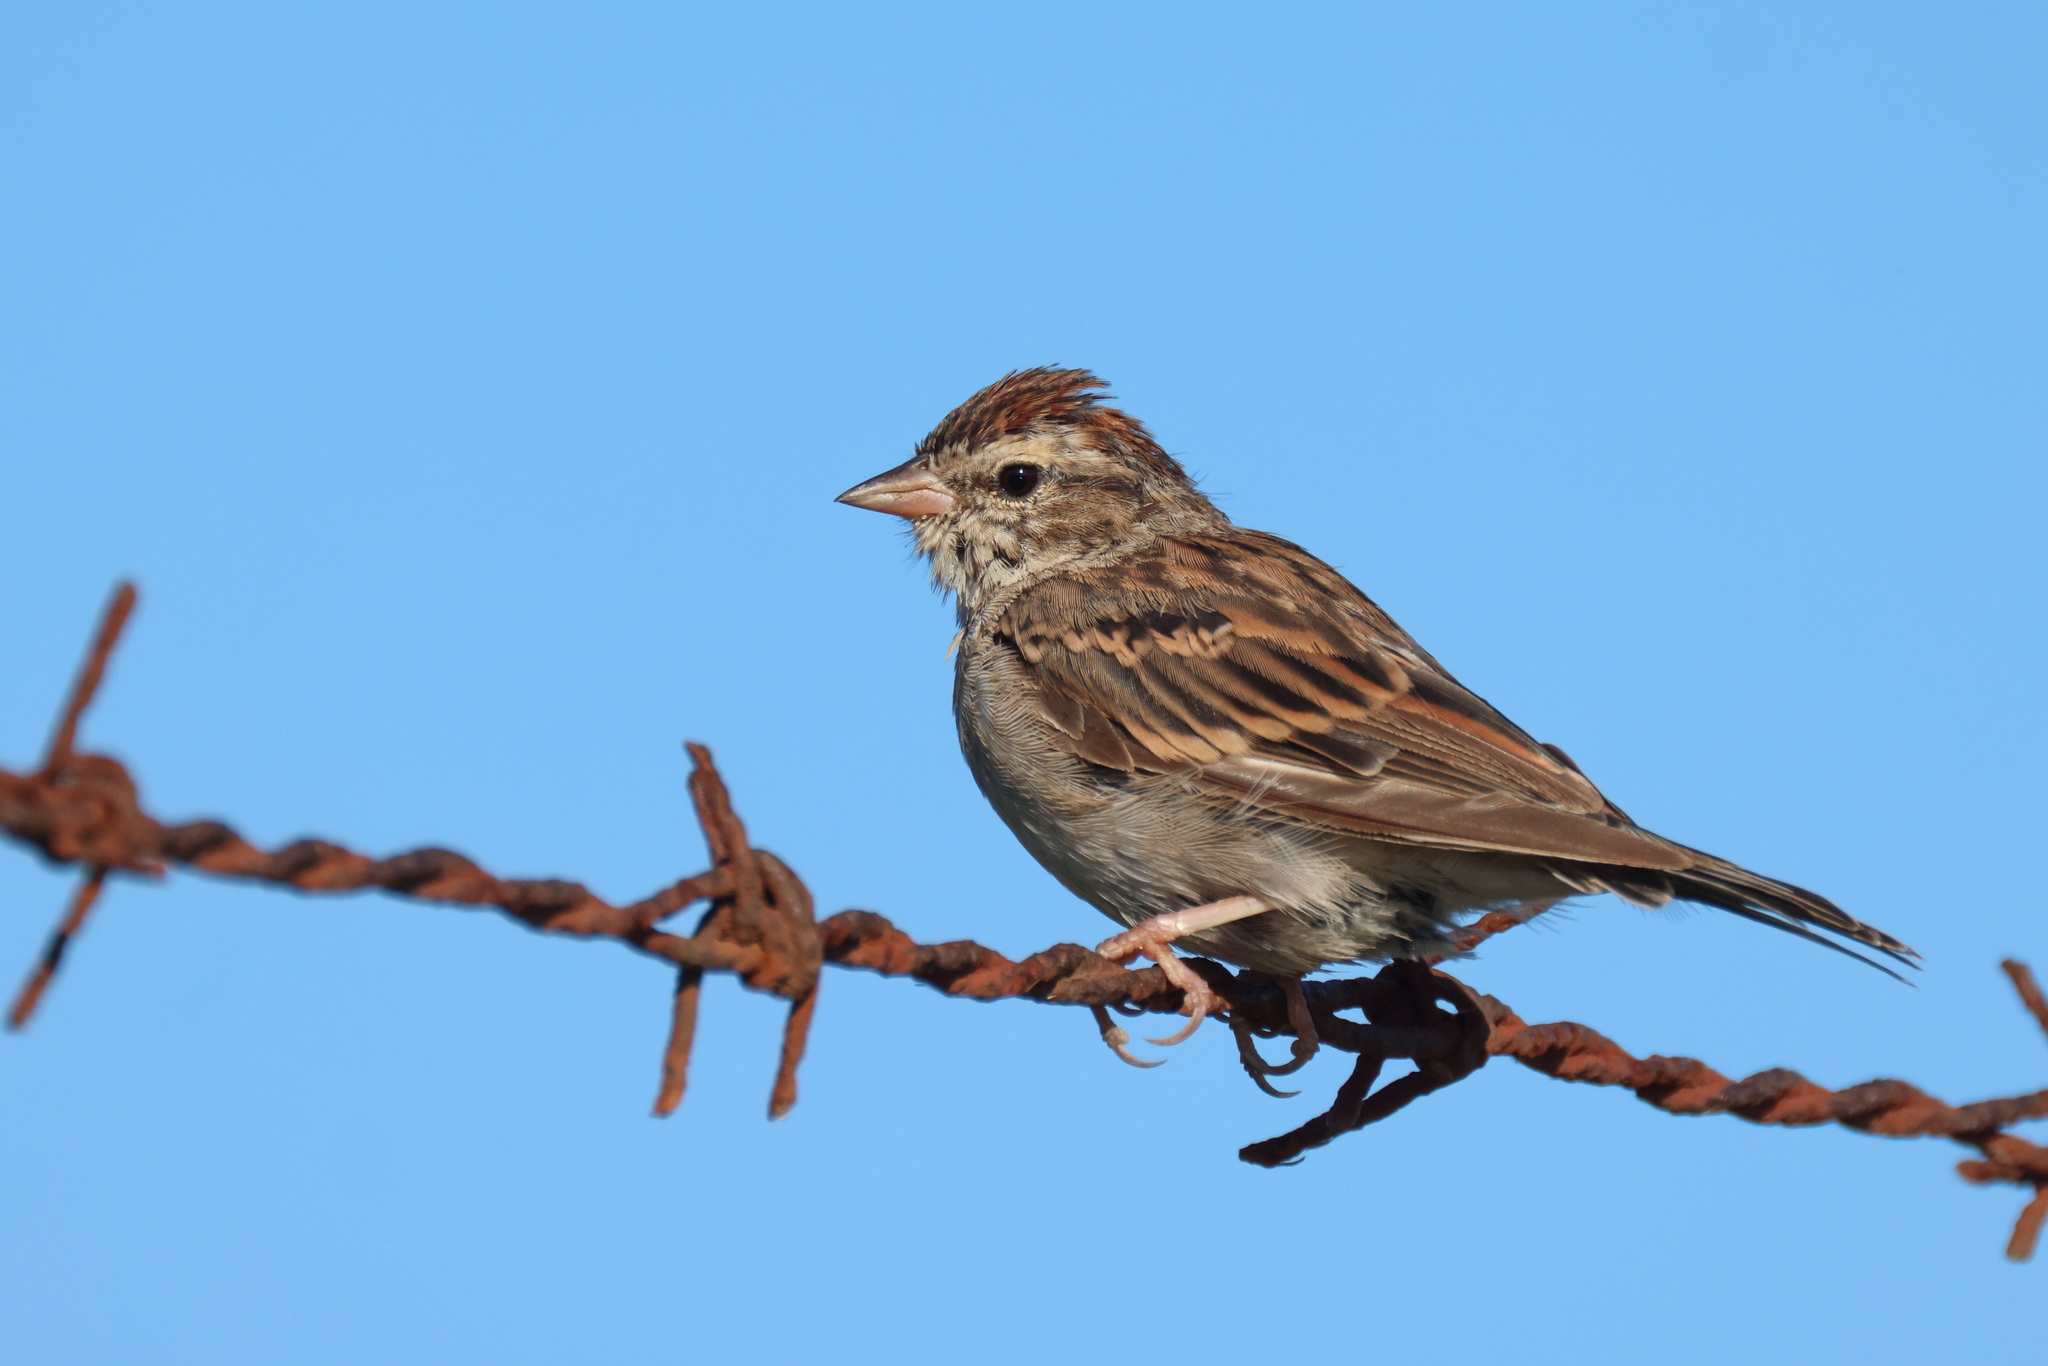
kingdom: Animalia
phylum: Chordata
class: Aves
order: Passeriformes
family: Passerellidae
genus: Spizella
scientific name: Spizella passerina
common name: Chipping sparrow
